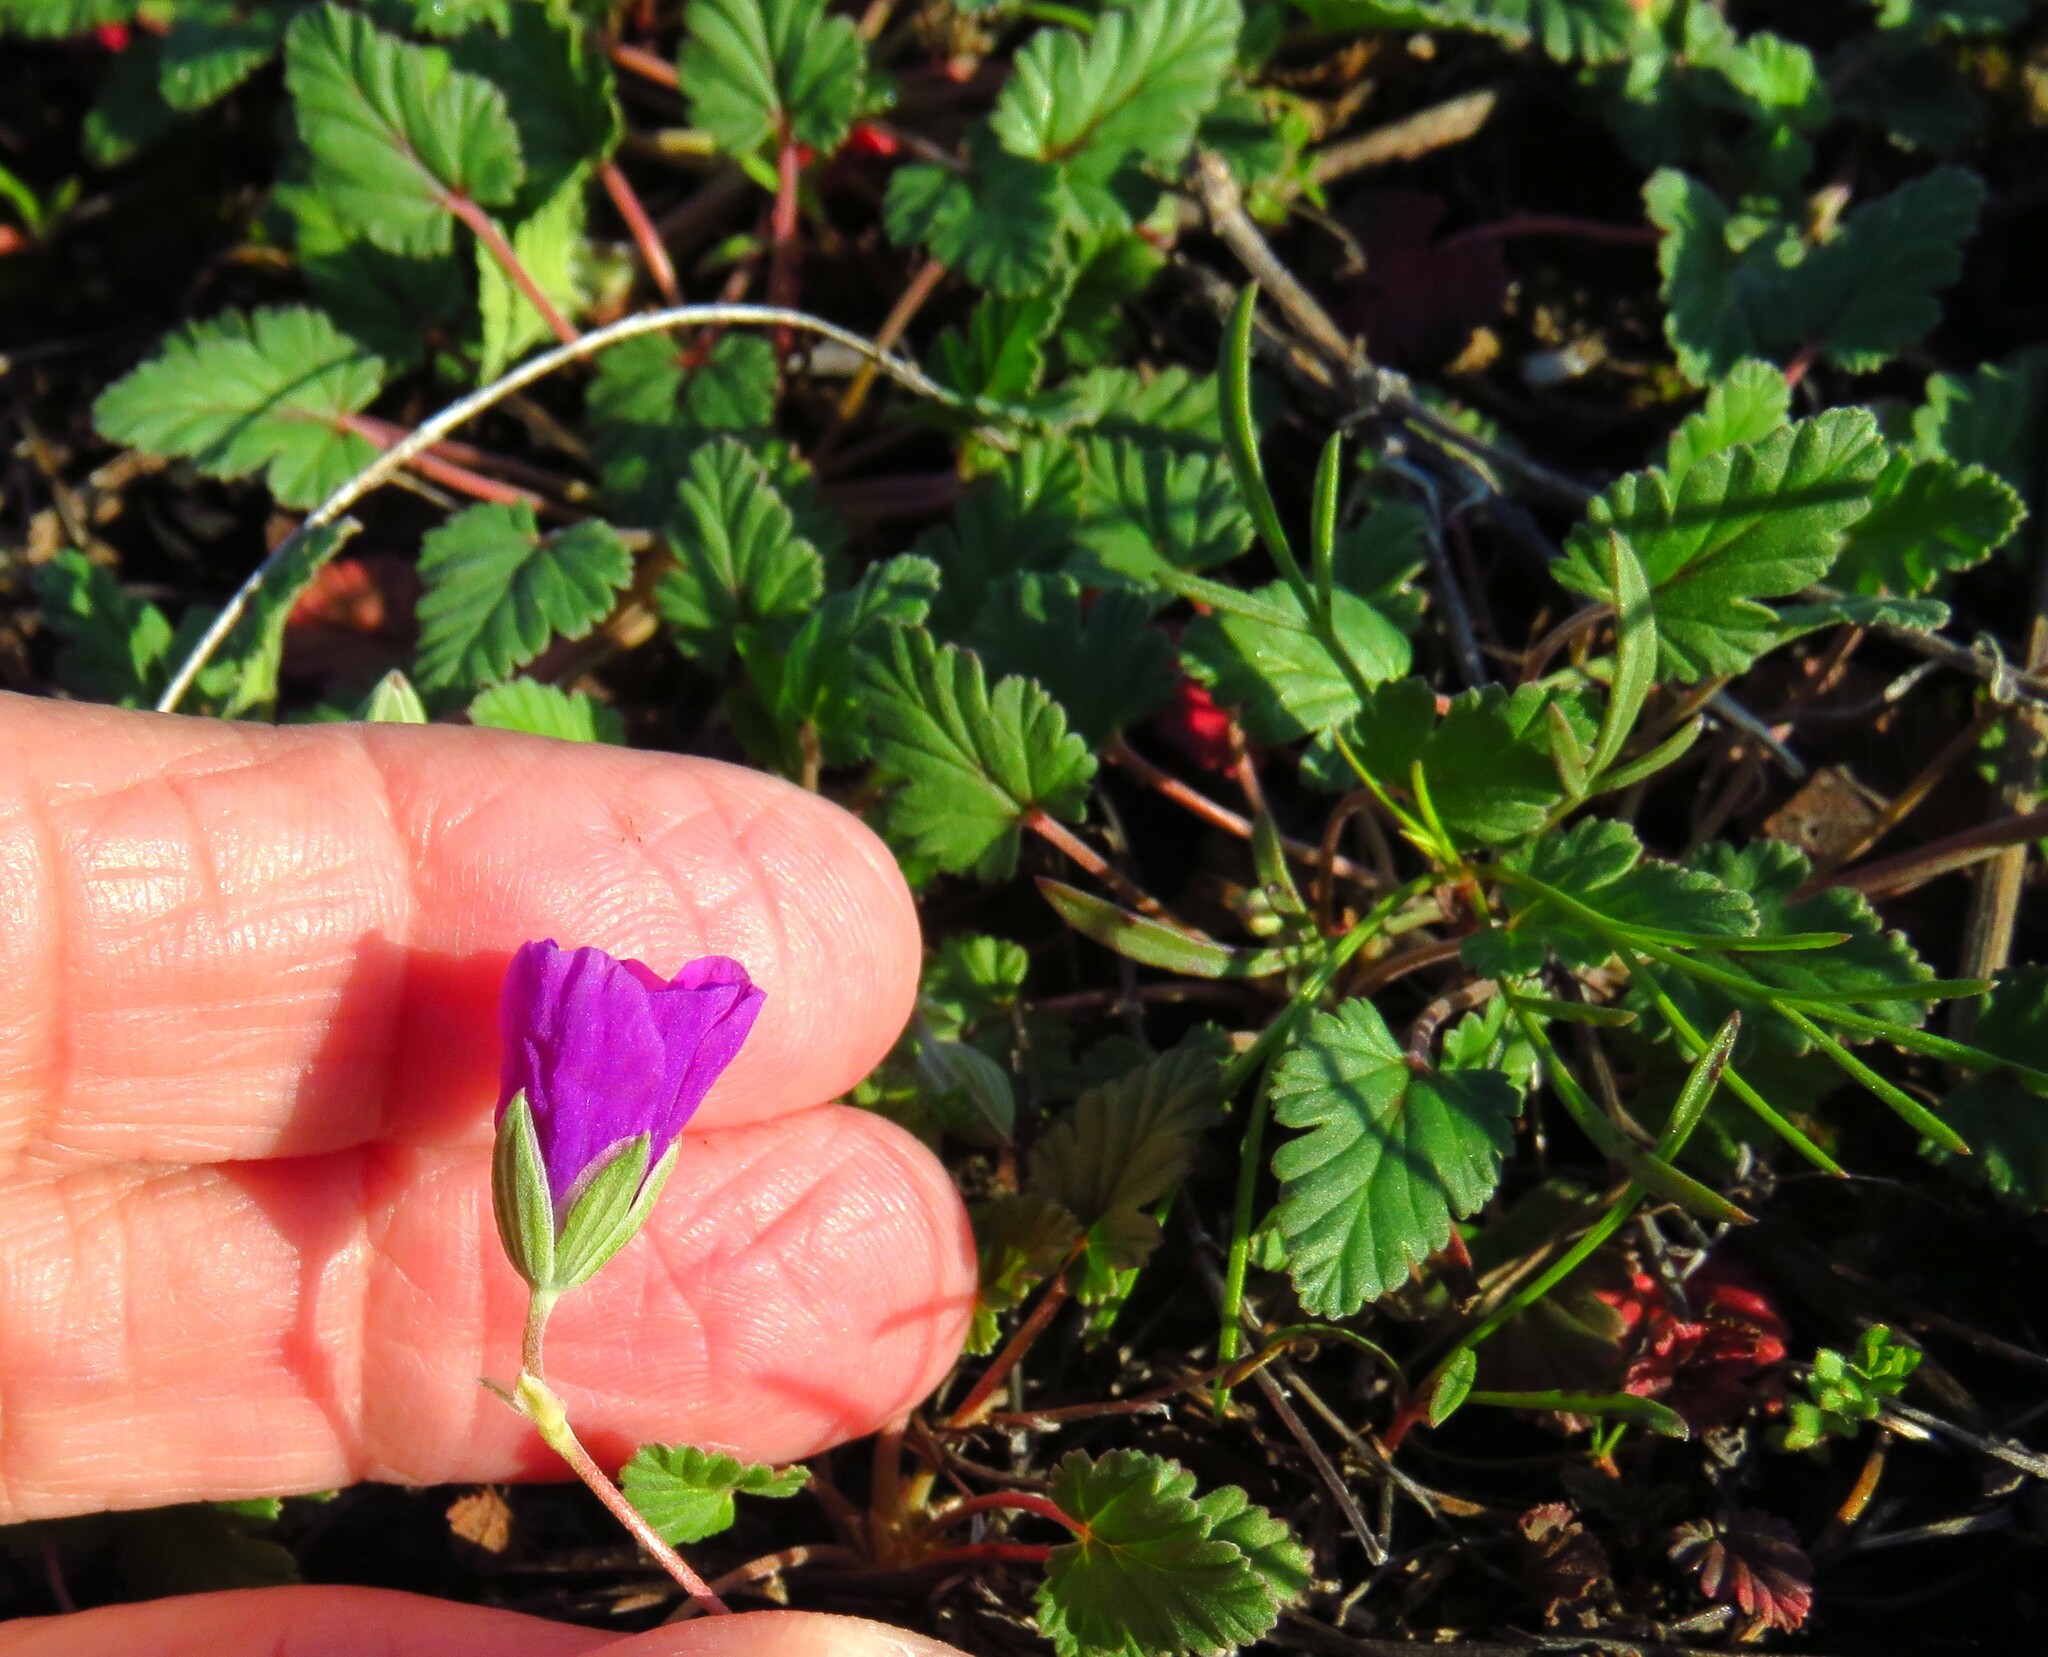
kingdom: Plantae
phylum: Tracheophyta
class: Magnoliopsida
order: Geraniales
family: Geraniaceae
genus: Erodium
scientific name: Erodium texanum
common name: Texas stork's-bill
